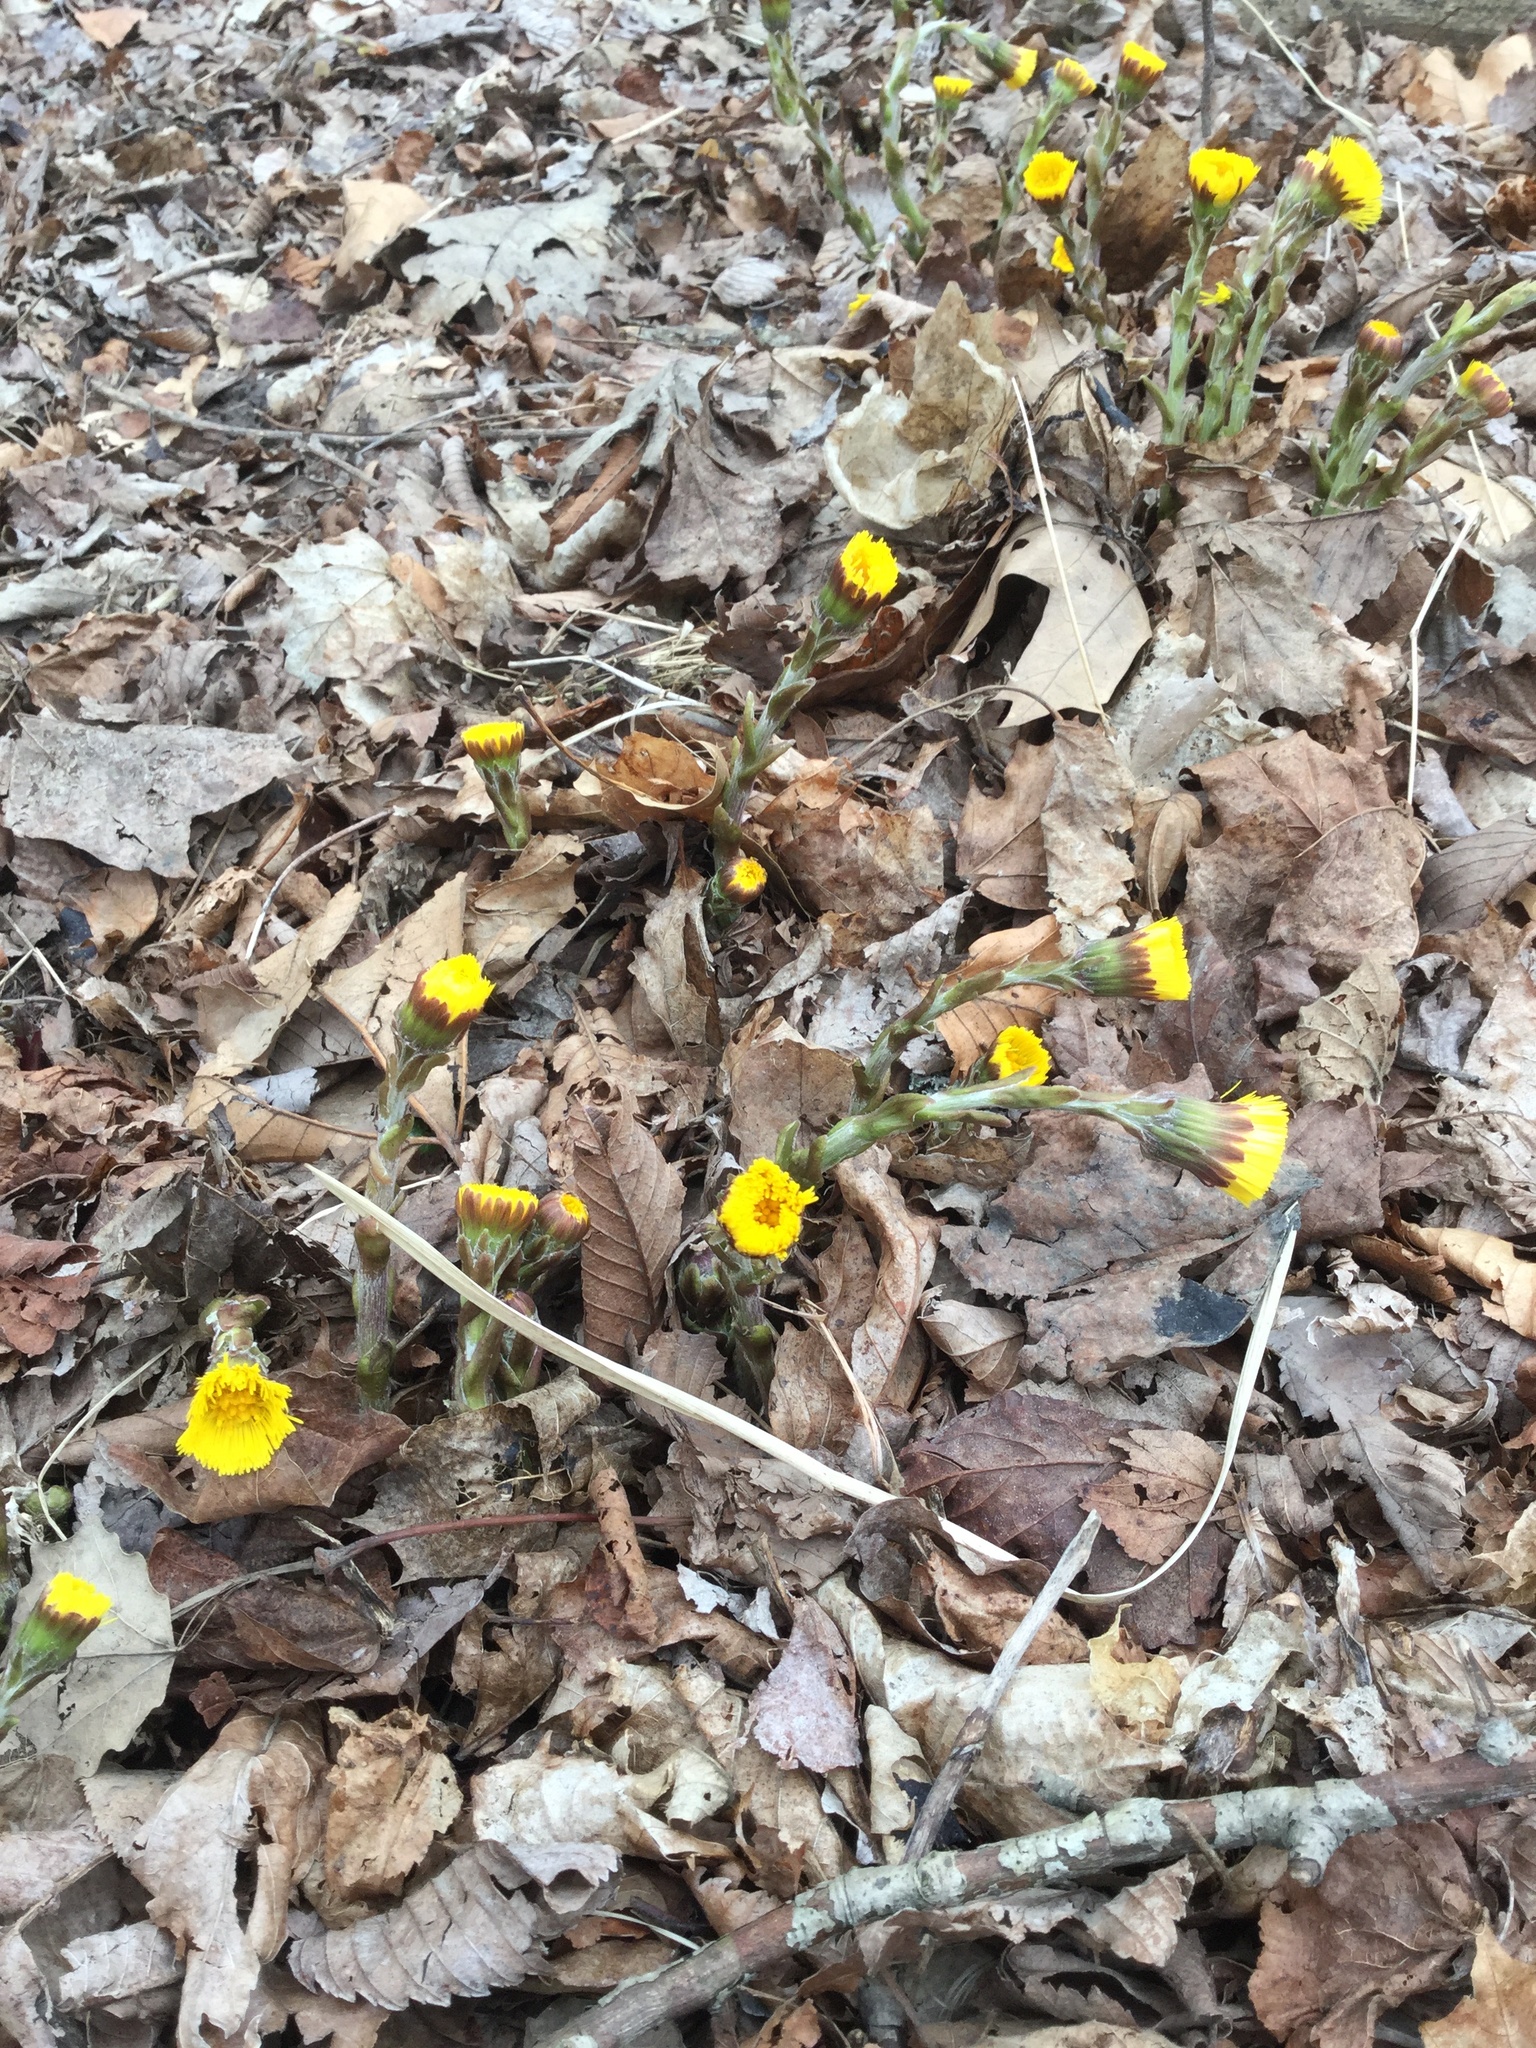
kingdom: Plantae
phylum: Tracheophyta
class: Magnoliopsida
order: Asterales
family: Asteraceae
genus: Tussilago
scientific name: Tussilago farfara
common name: Coltsfoot
